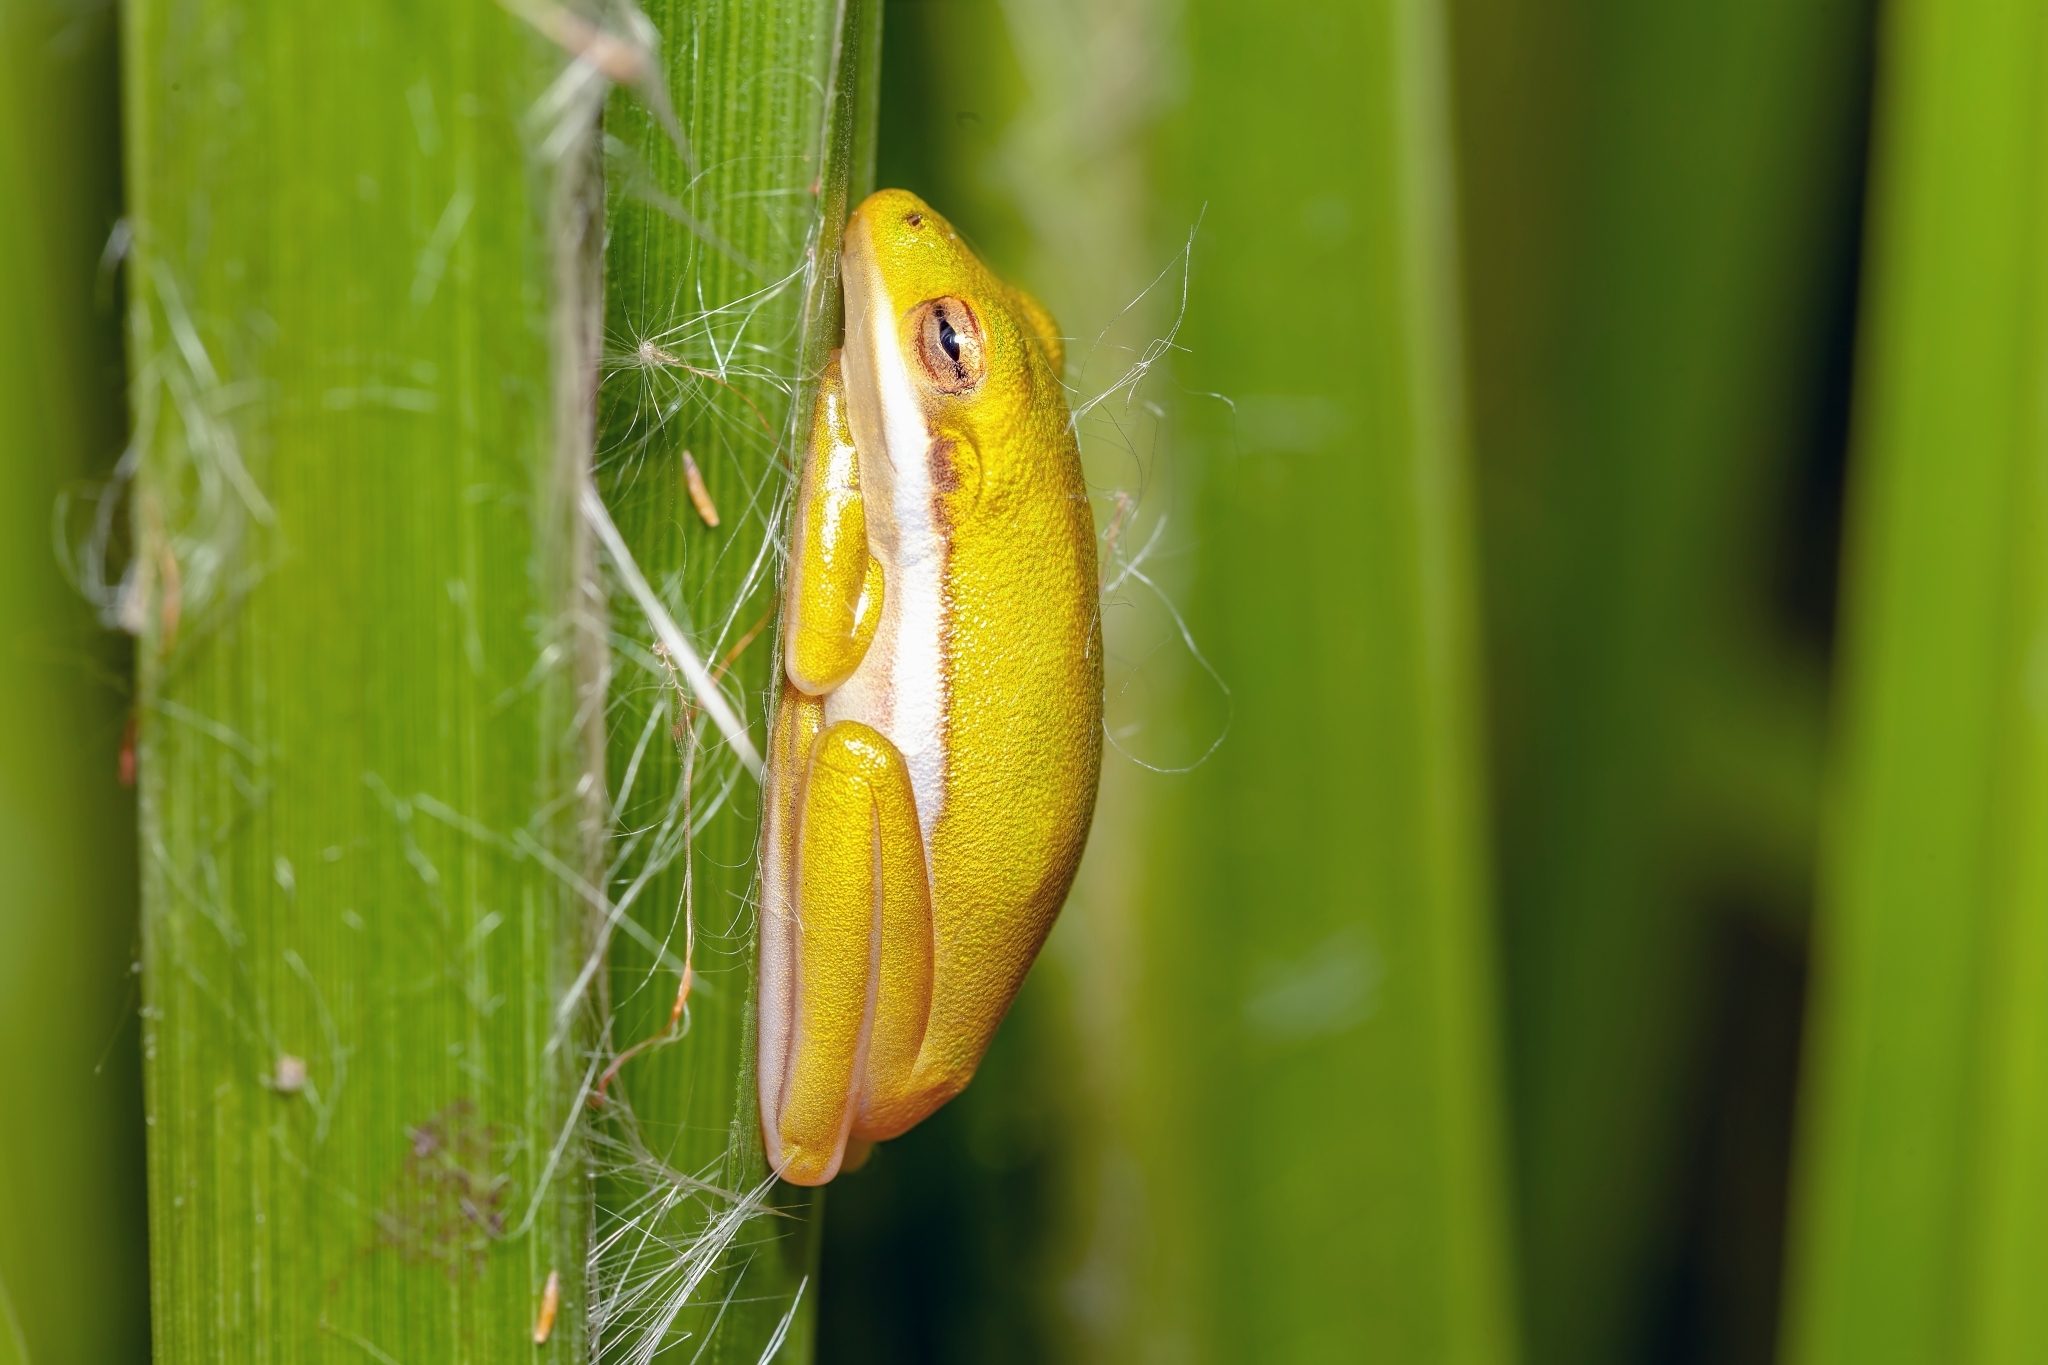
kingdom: Animalia
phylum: Chordata
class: Amphibia
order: Anura
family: Hylidae
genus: Dryophytes
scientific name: Dryophytes cinereus
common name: Green treefrog
